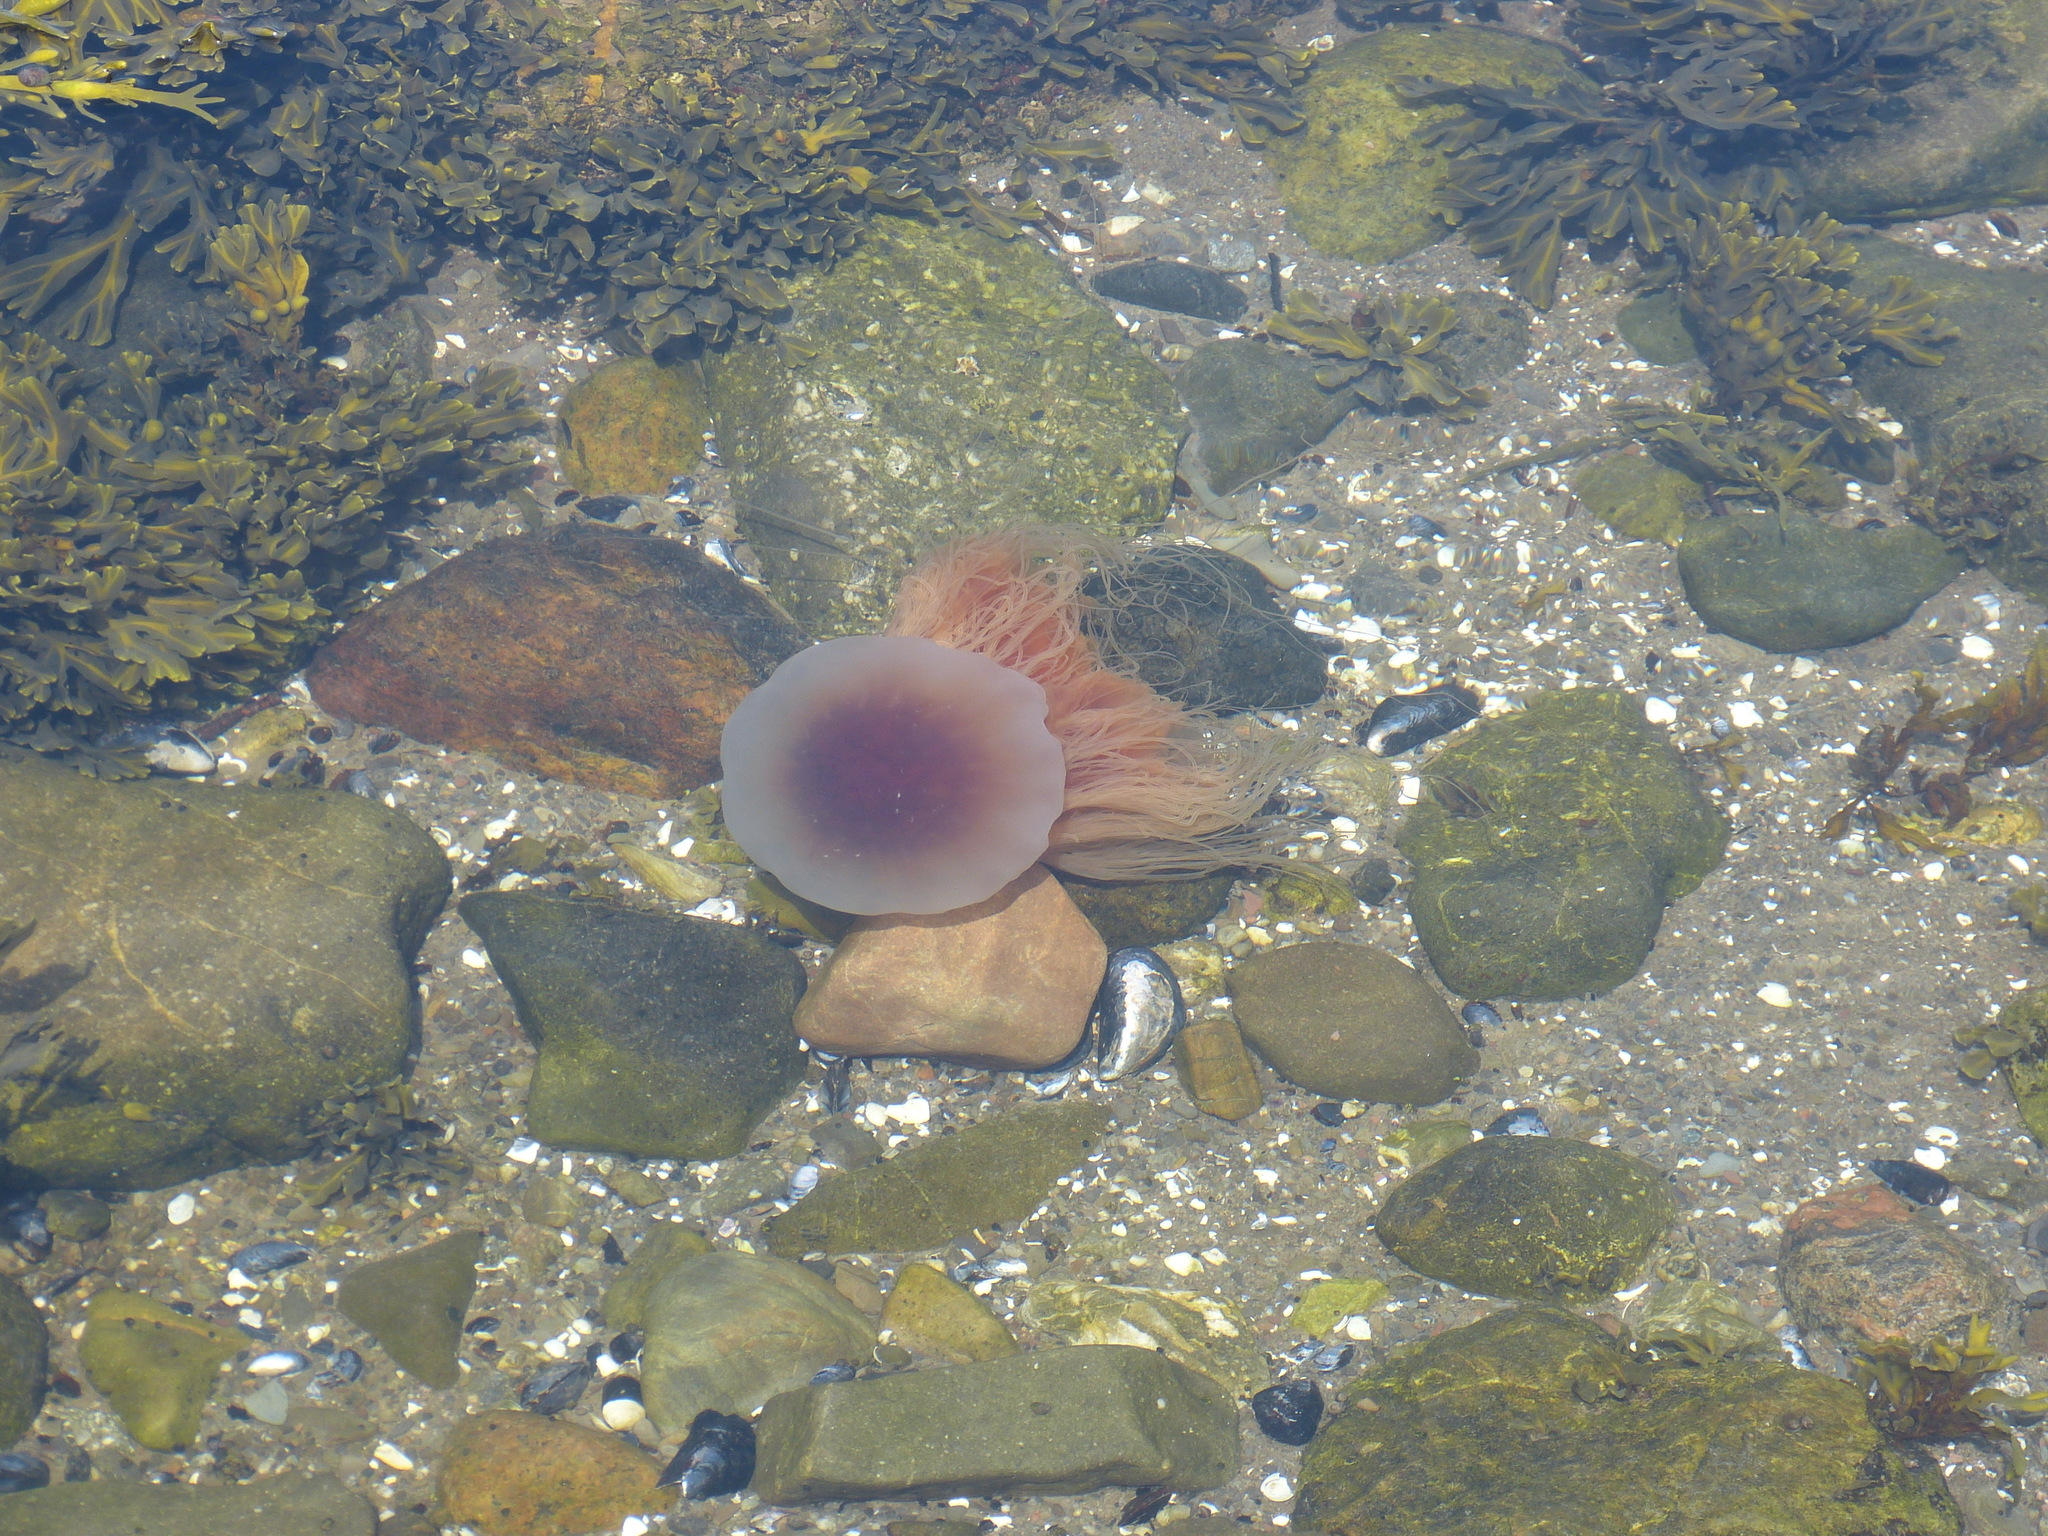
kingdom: Animalia
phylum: Cnidaria
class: Scyphozoa
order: Semaeostomeae
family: Cyaneidae
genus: Cyanea
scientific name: Cyanea
